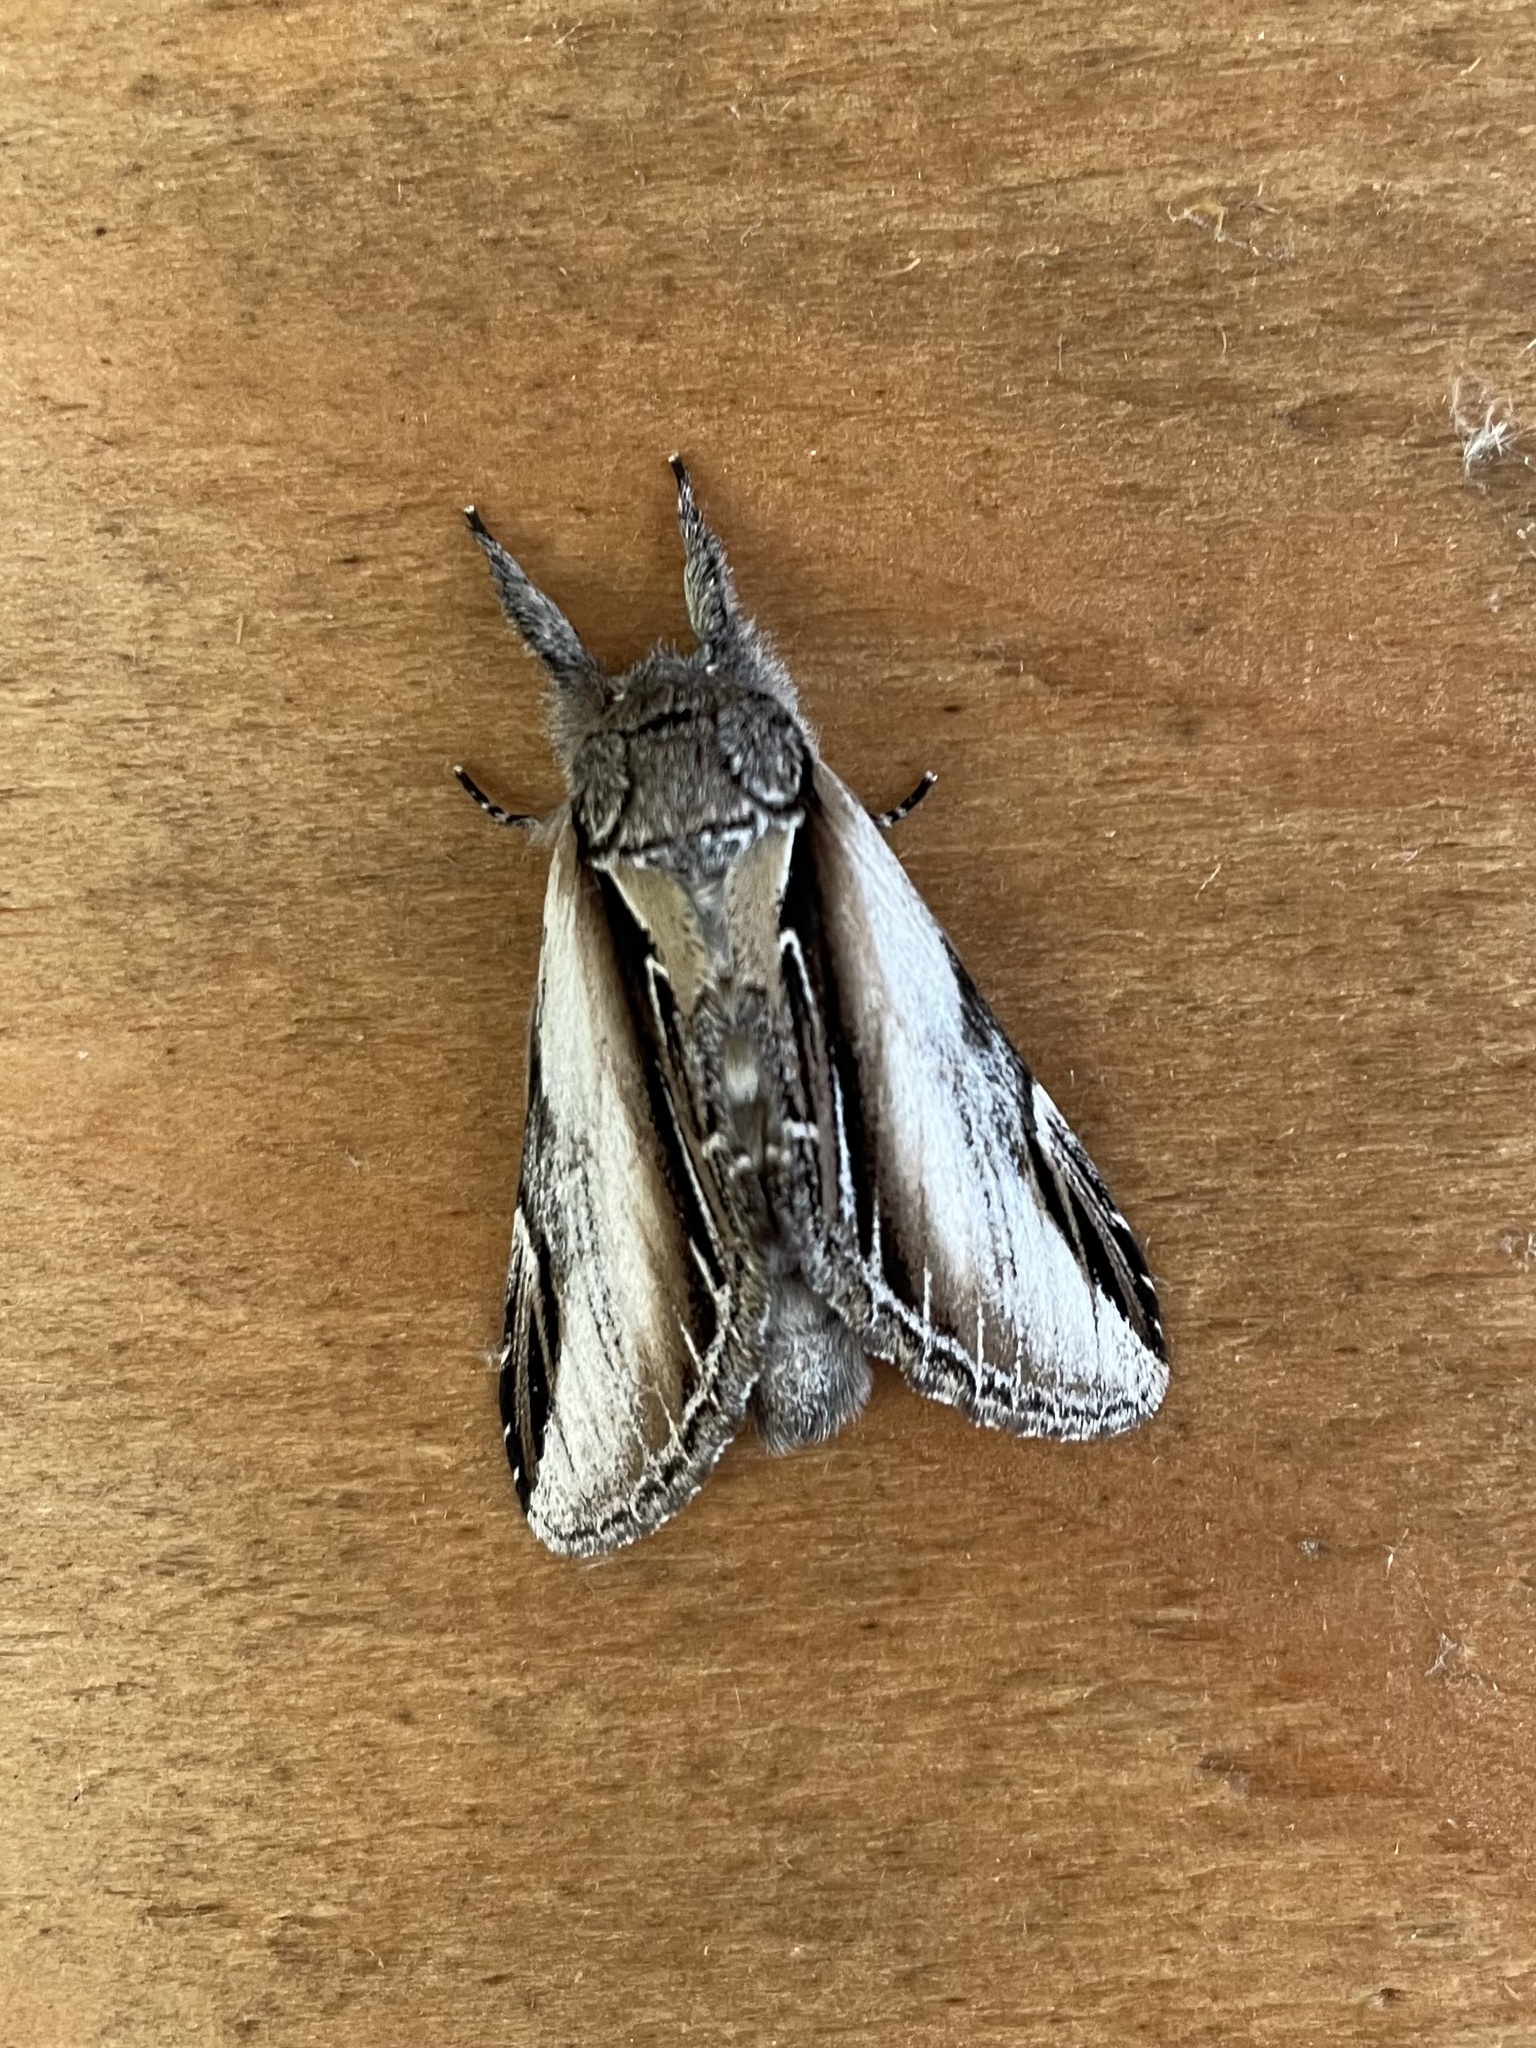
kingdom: Animalia
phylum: Arthropoda
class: Insecta
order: Lepidoptera
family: Notodontidae
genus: Pheosia
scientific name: Pheosia rimosa
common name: Black-rimmed prominent
